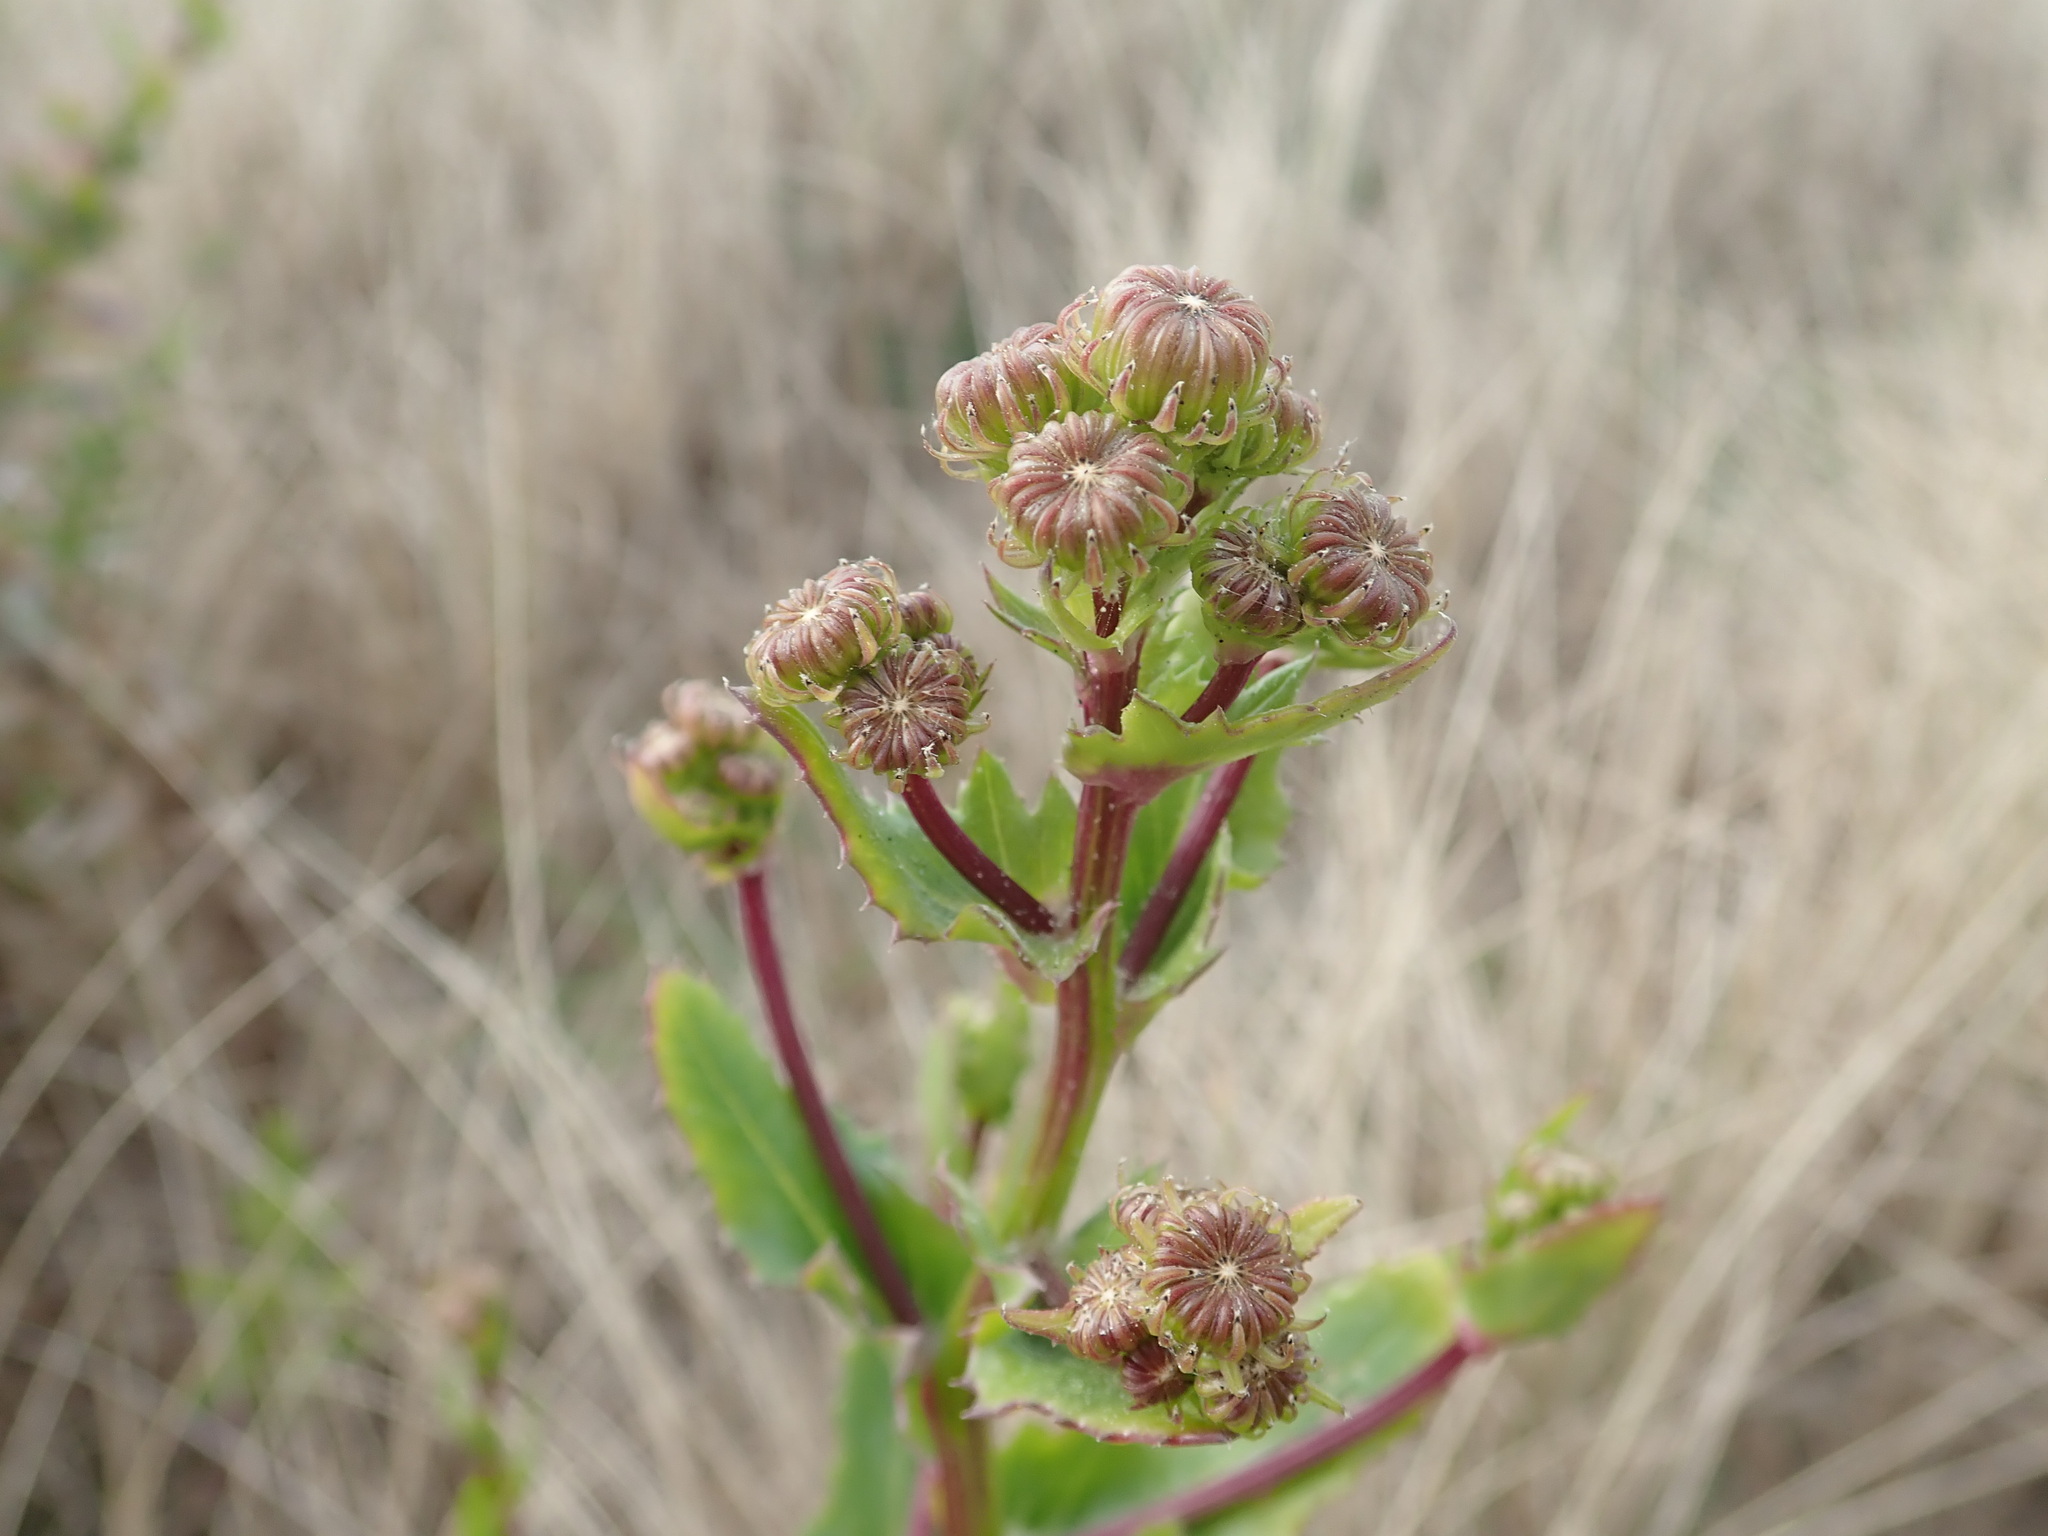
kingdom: Plantae
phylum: Tracheophyta
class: Magnoliopsida
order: Asterales
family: Asteraceae
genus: Senecio
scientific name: Senecio glastifolius
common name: Woad-leaved ragwort
